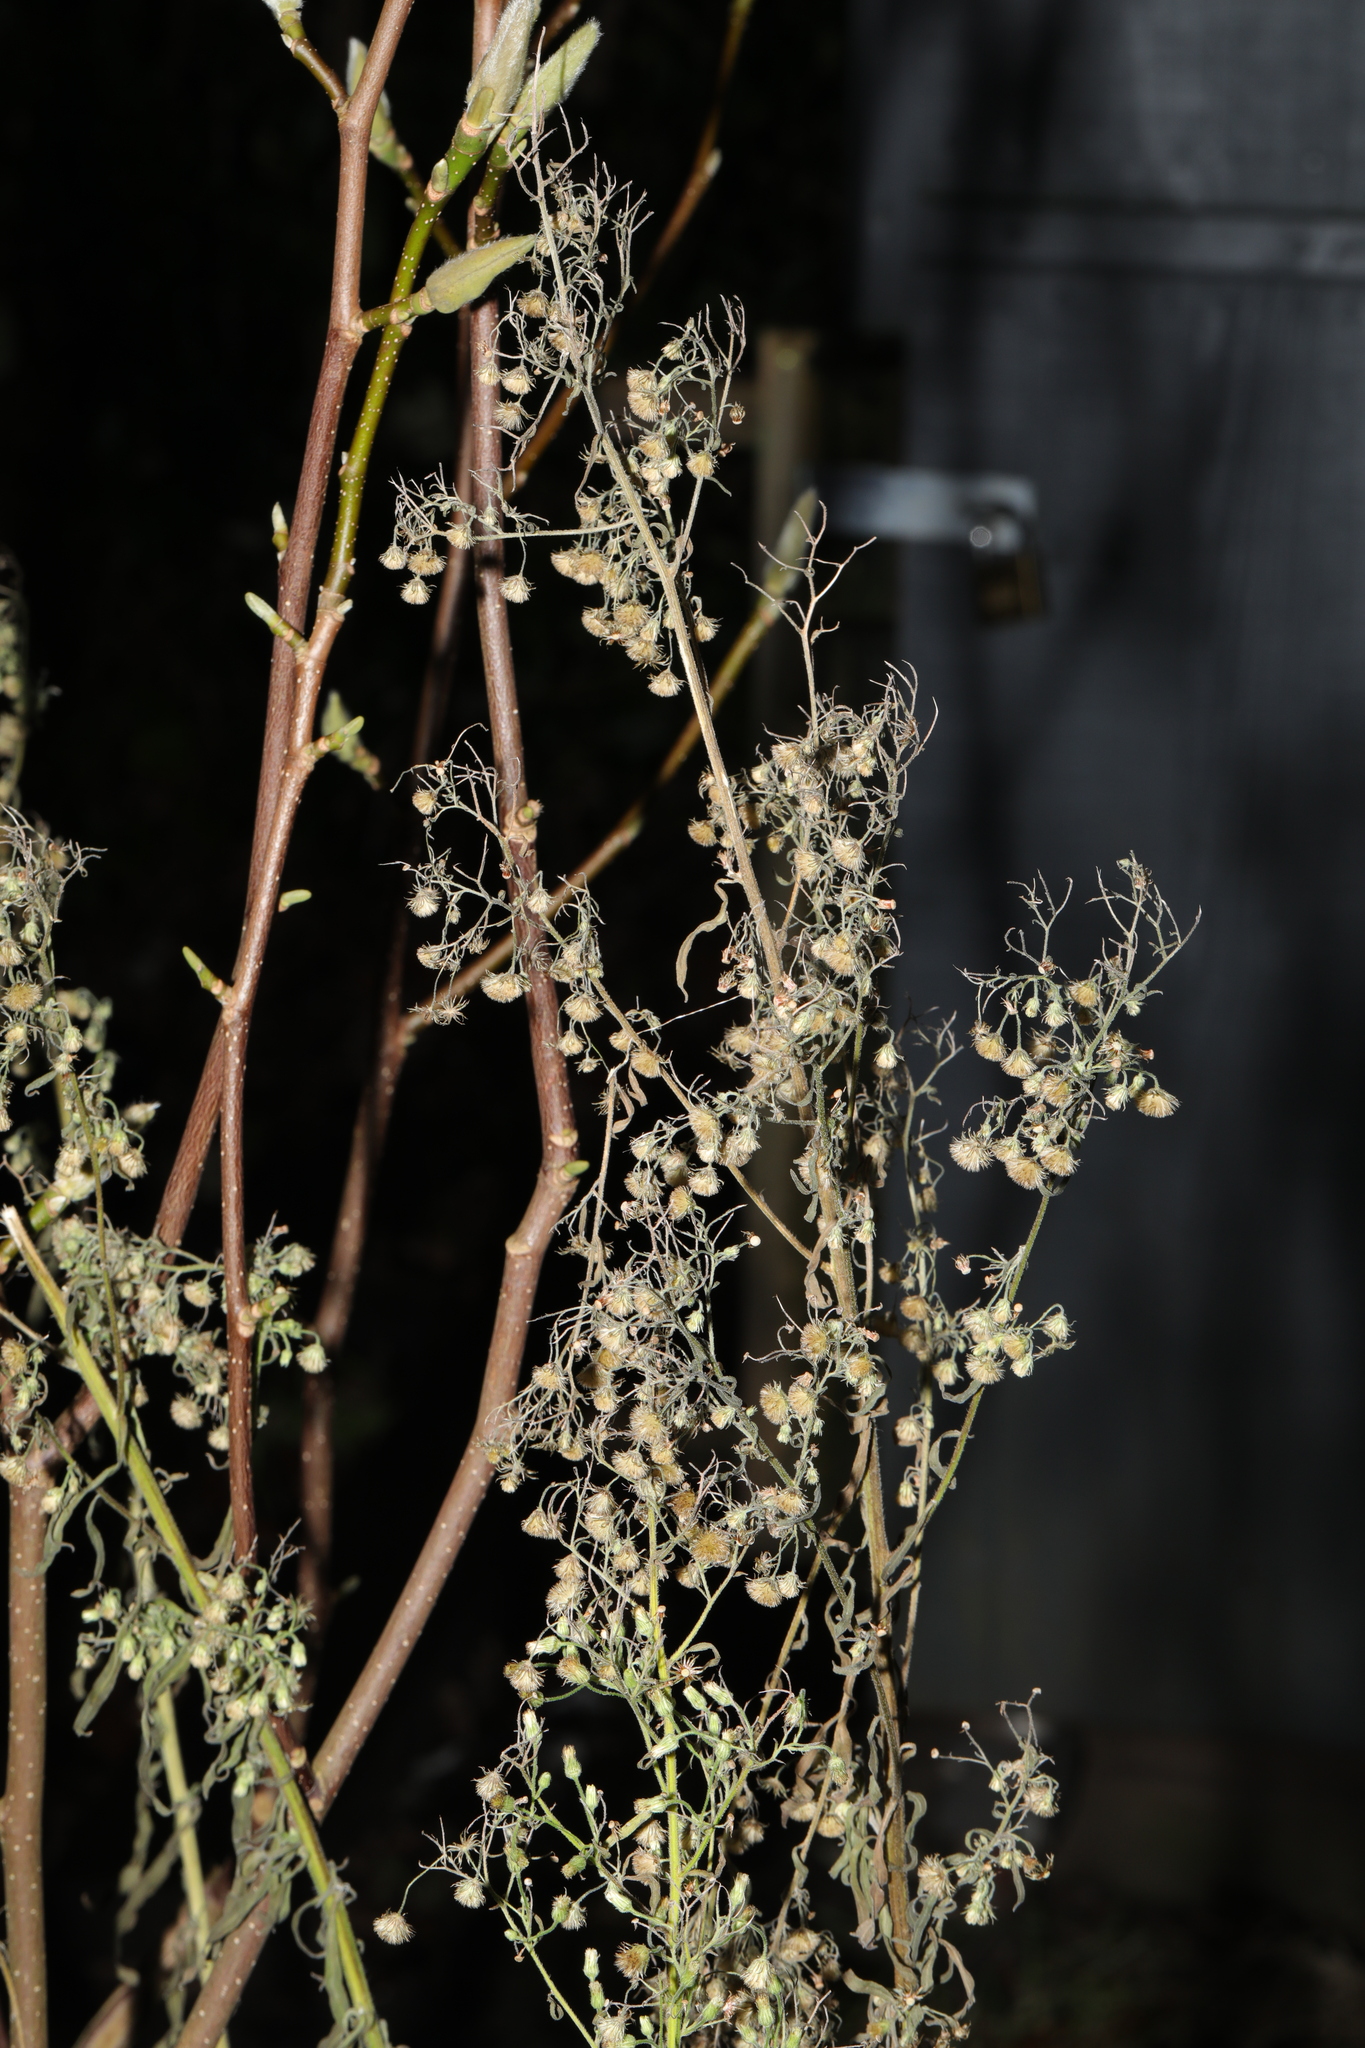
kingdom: Plantae
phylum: Tracheophyta
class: Magnoliopsida
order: Asterales
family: Asteraceae
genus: Erigeron
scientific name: Erigeron sumatrensis
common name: Daisy
